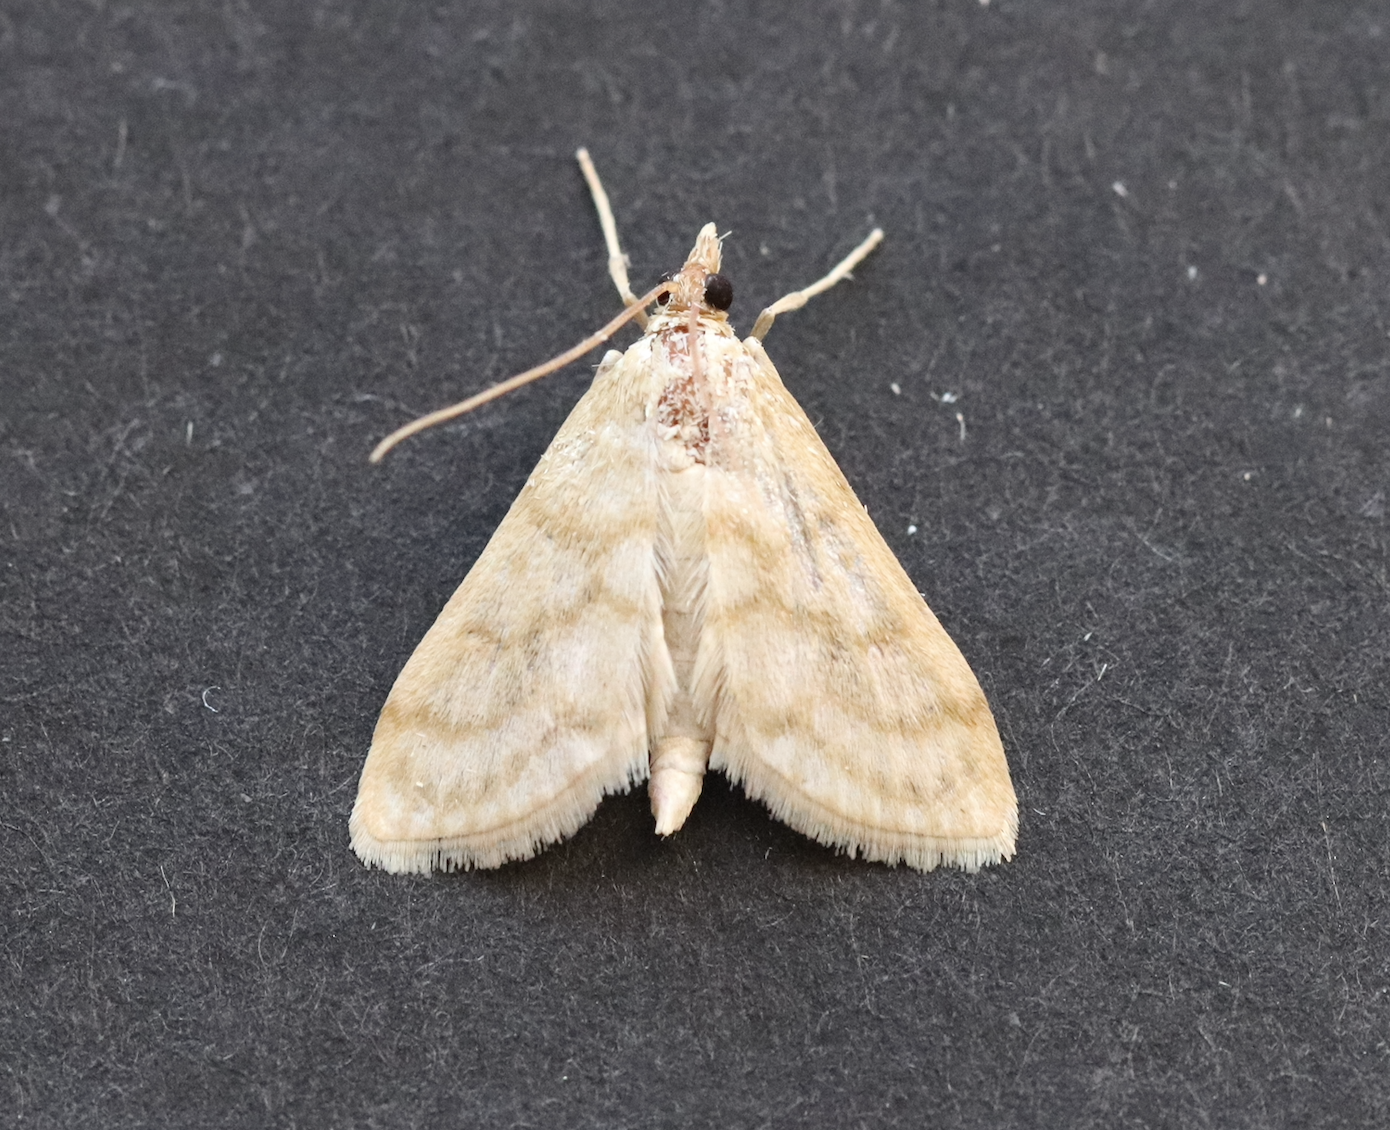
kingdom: Animalia
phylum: Arthropoda
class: Insecta
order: Lepidoptera
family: Crambidae
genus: Paracorsia
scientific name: Paracorsia repandalis
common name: Mullein moth
